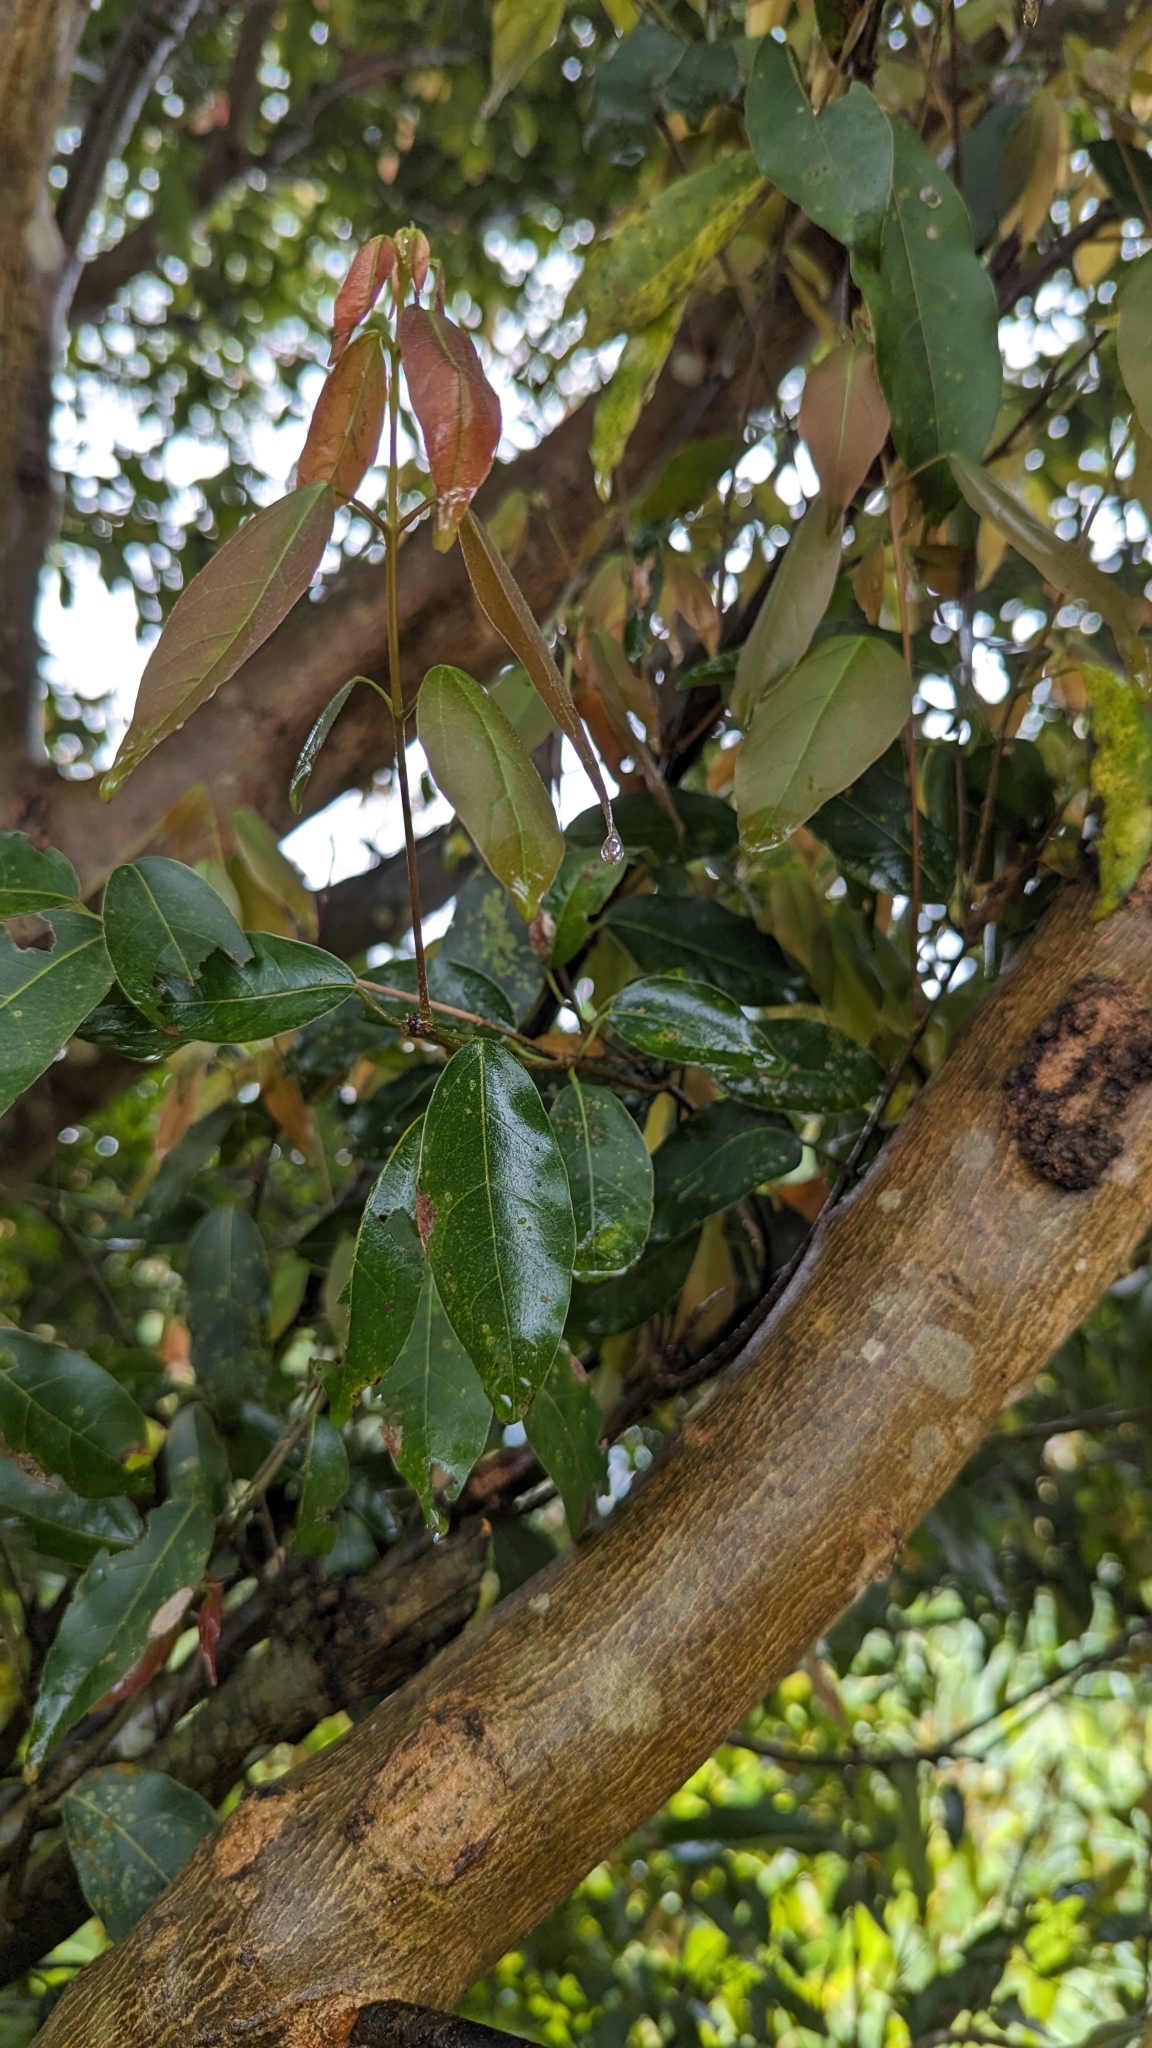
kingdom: Plantae
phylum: Tracheophyta
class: Magnoliopsida
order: Sapindales
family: Sapindaceae
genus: Acer
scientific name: Acer oblongum
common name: Himalayan maple
